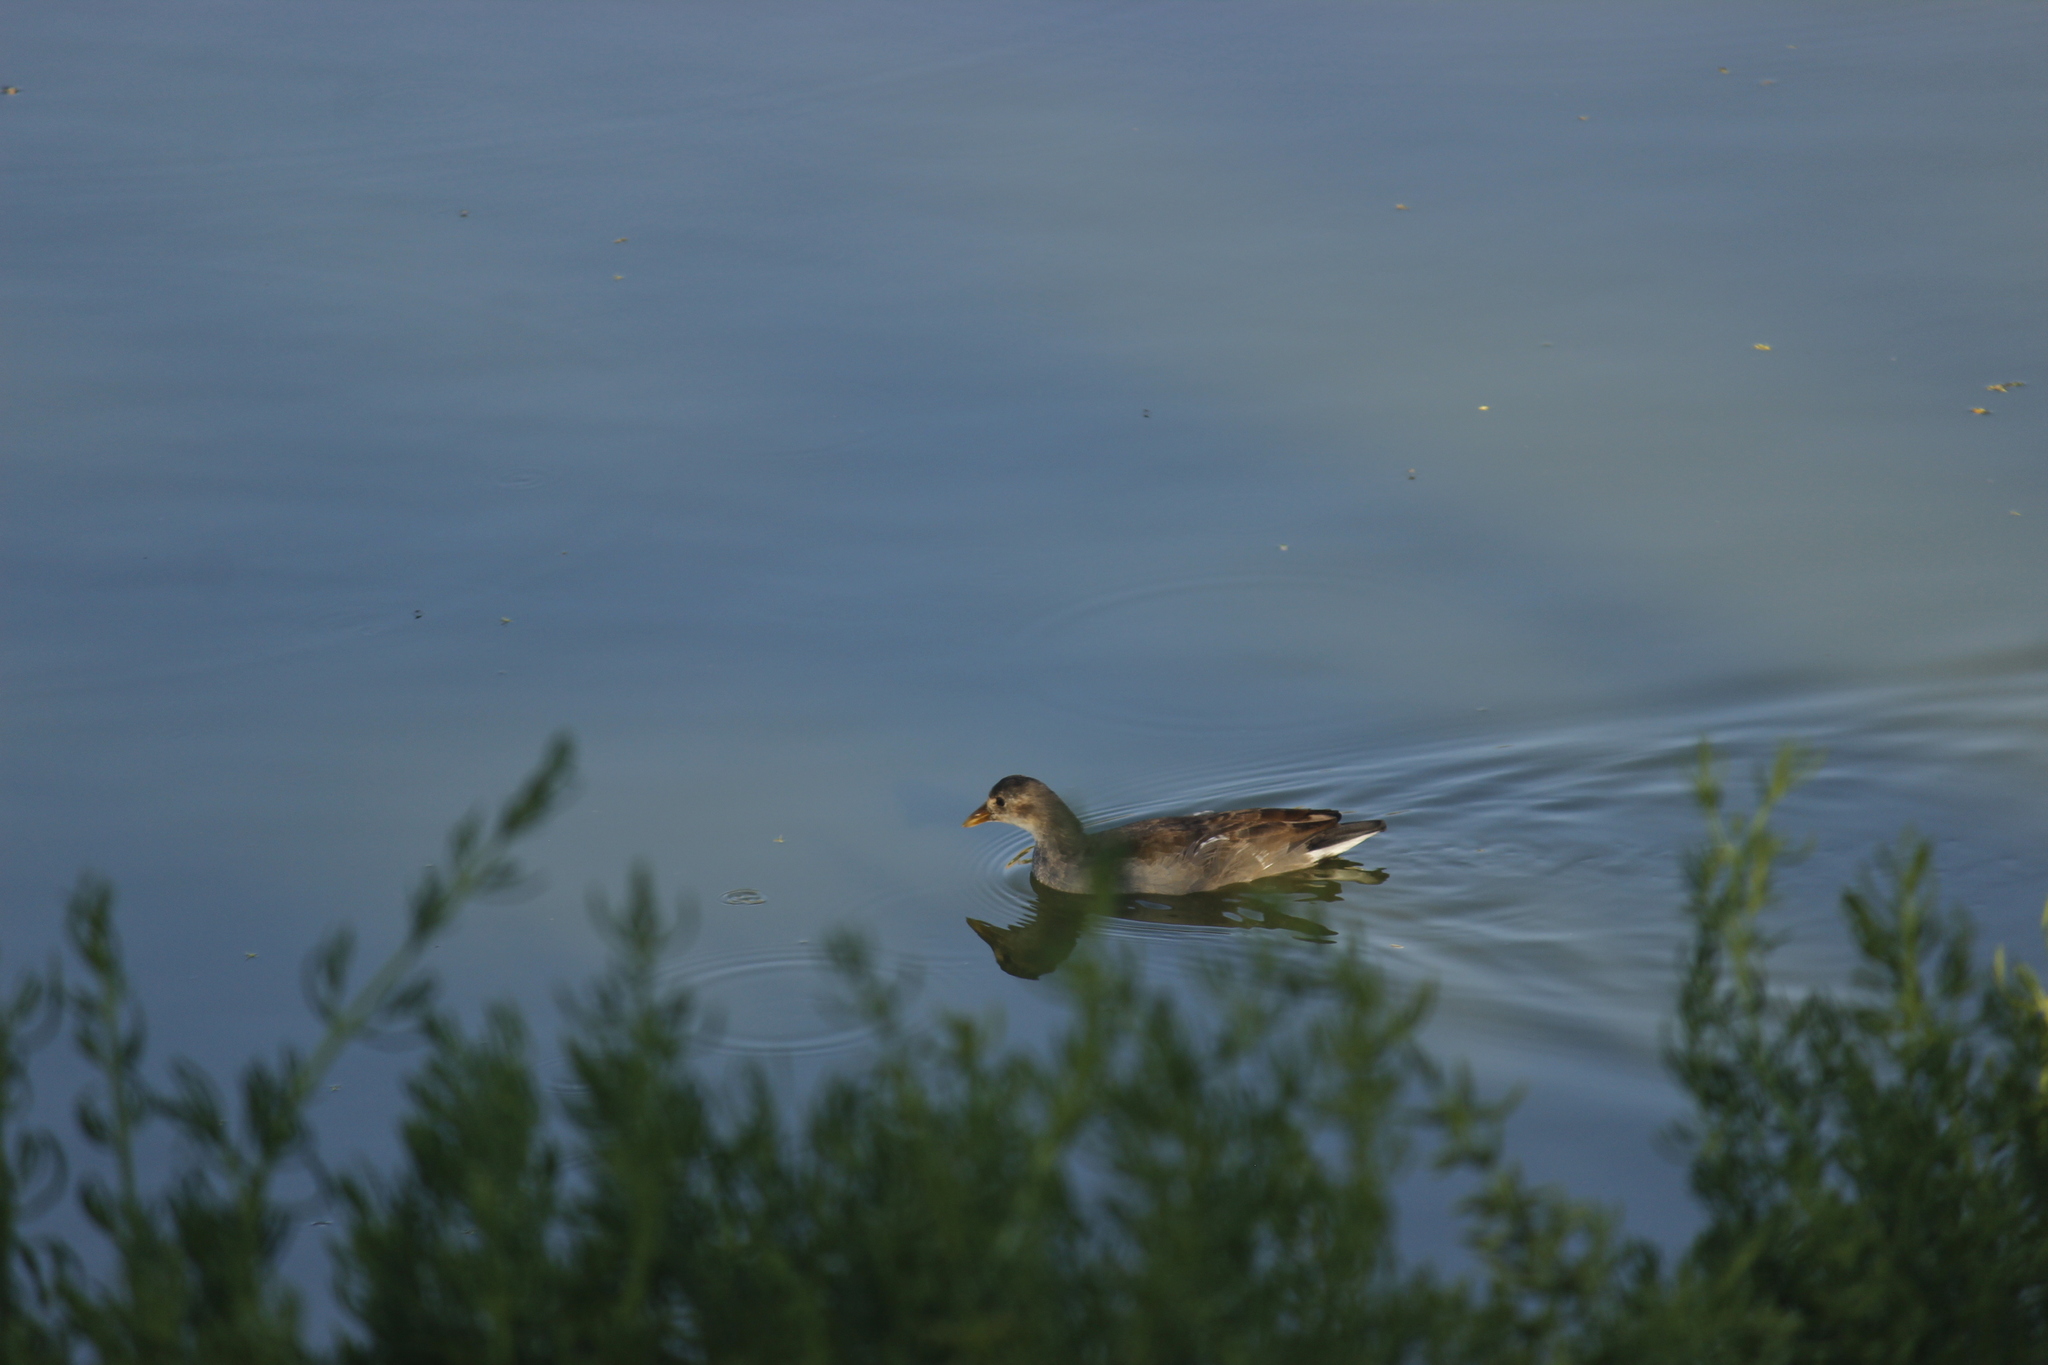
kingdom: Animalia
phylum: Chordata
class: Aves
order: Gruiformes
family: Rallidae
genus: Gallinula
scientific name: Gallinula chloropus
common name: Common moorhen
